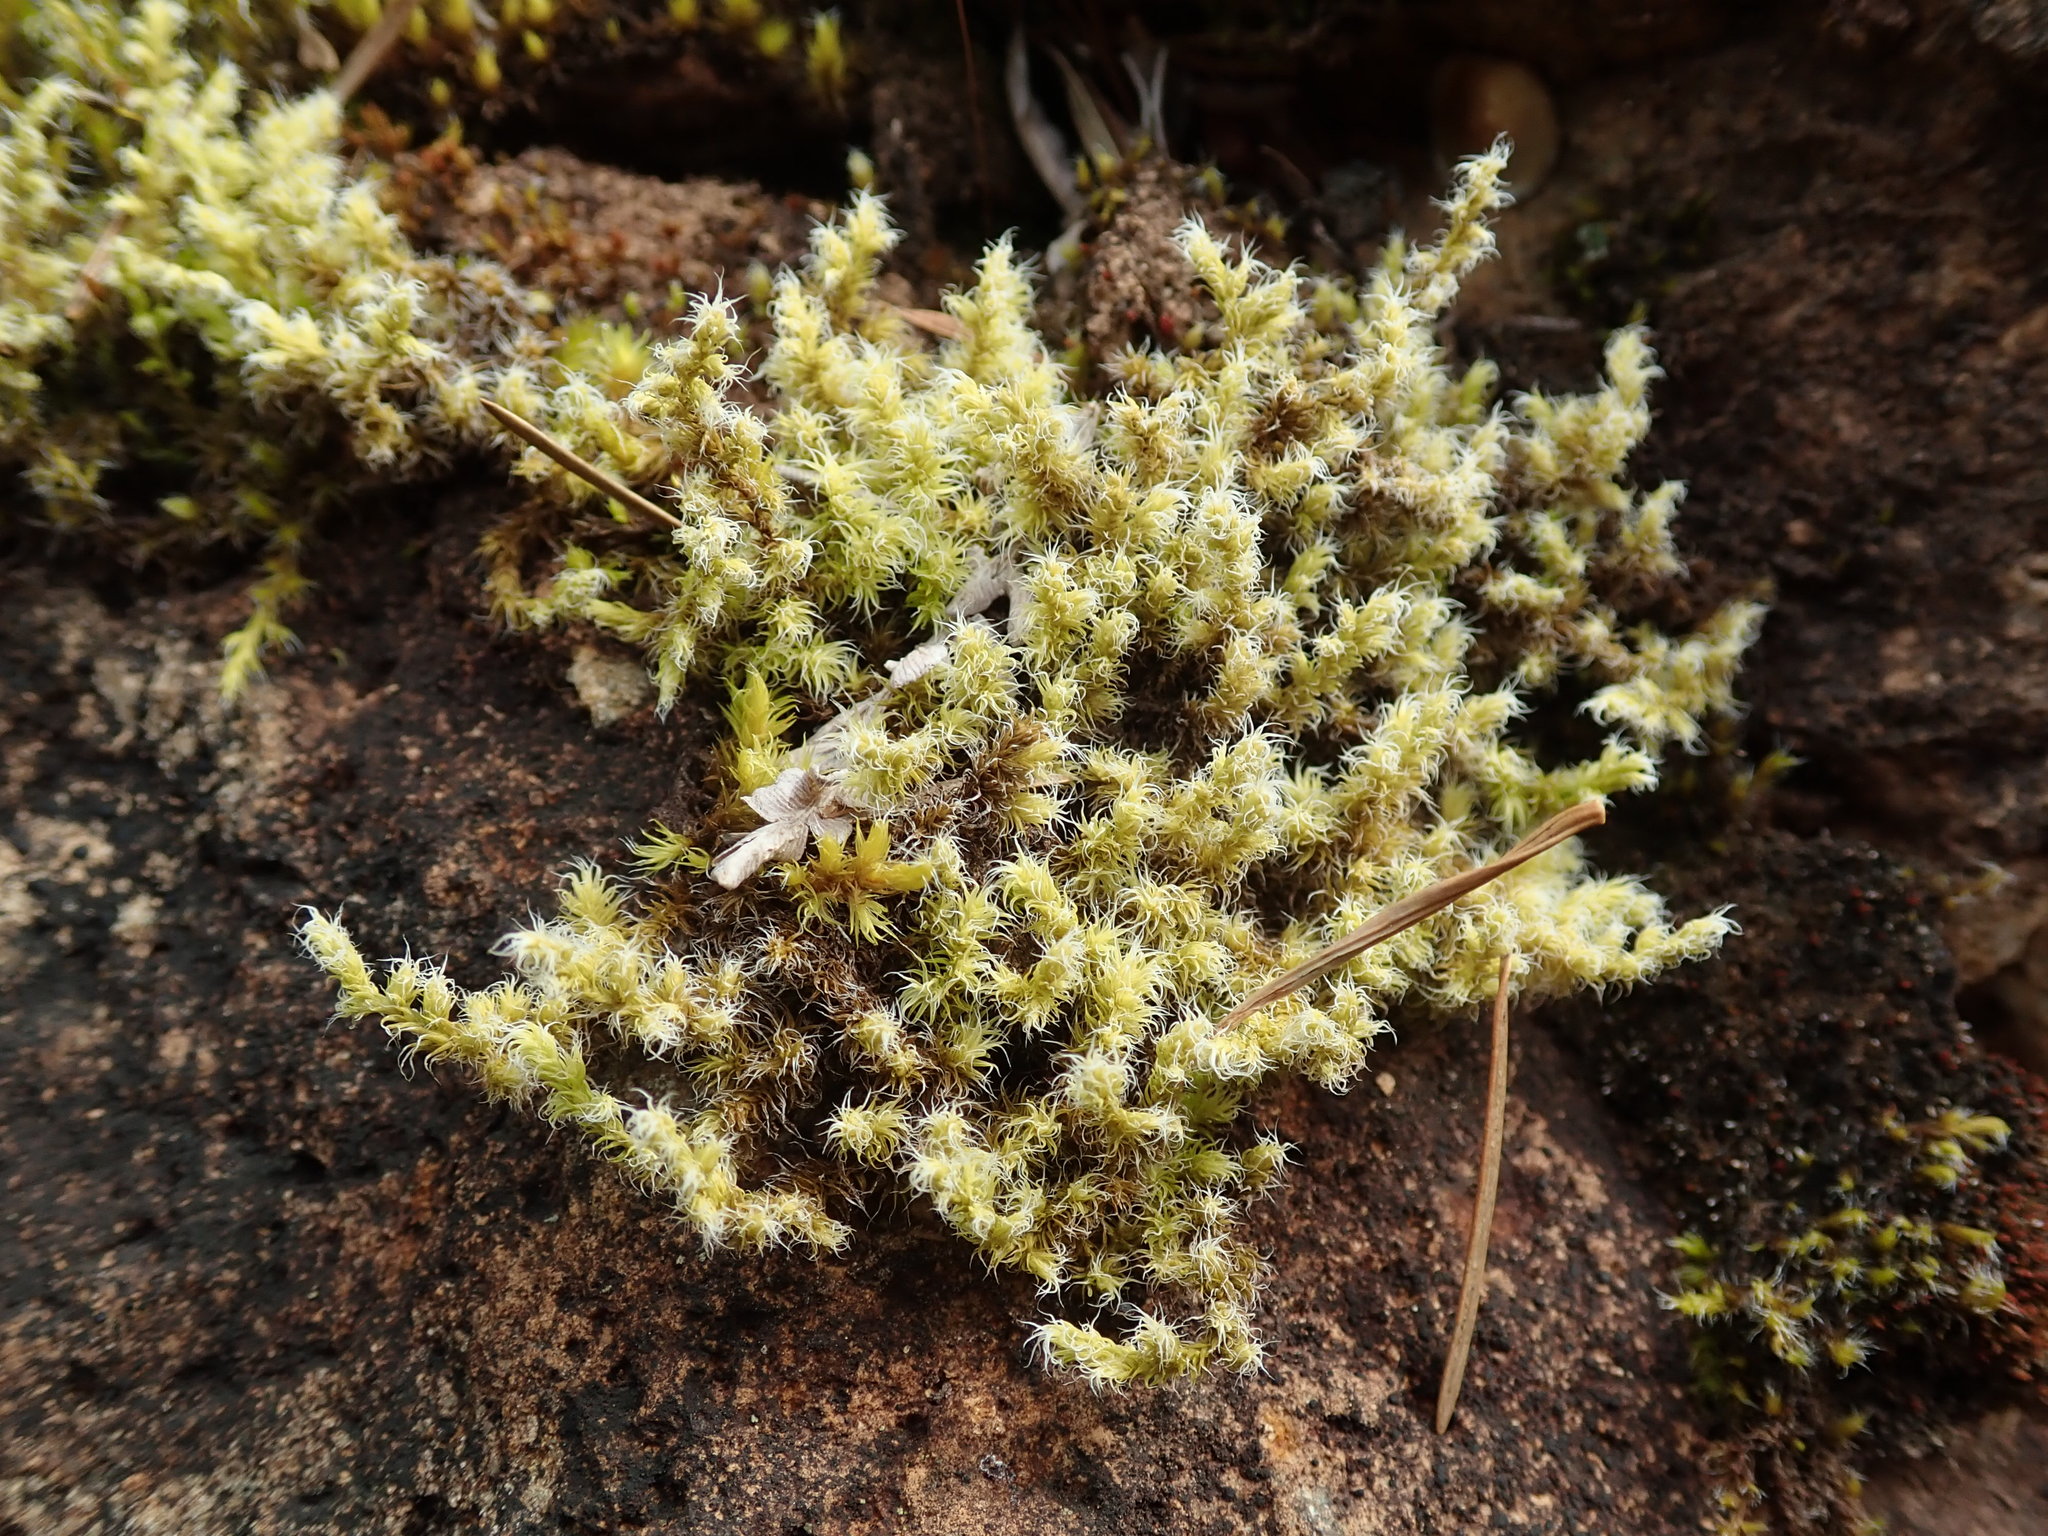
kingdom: Plantae
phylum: Bryophyta
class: Bryopsida
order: Grimmiales
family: Grimmiaceae
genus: Niphotrichum
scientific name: Niphotrichum elongatum
